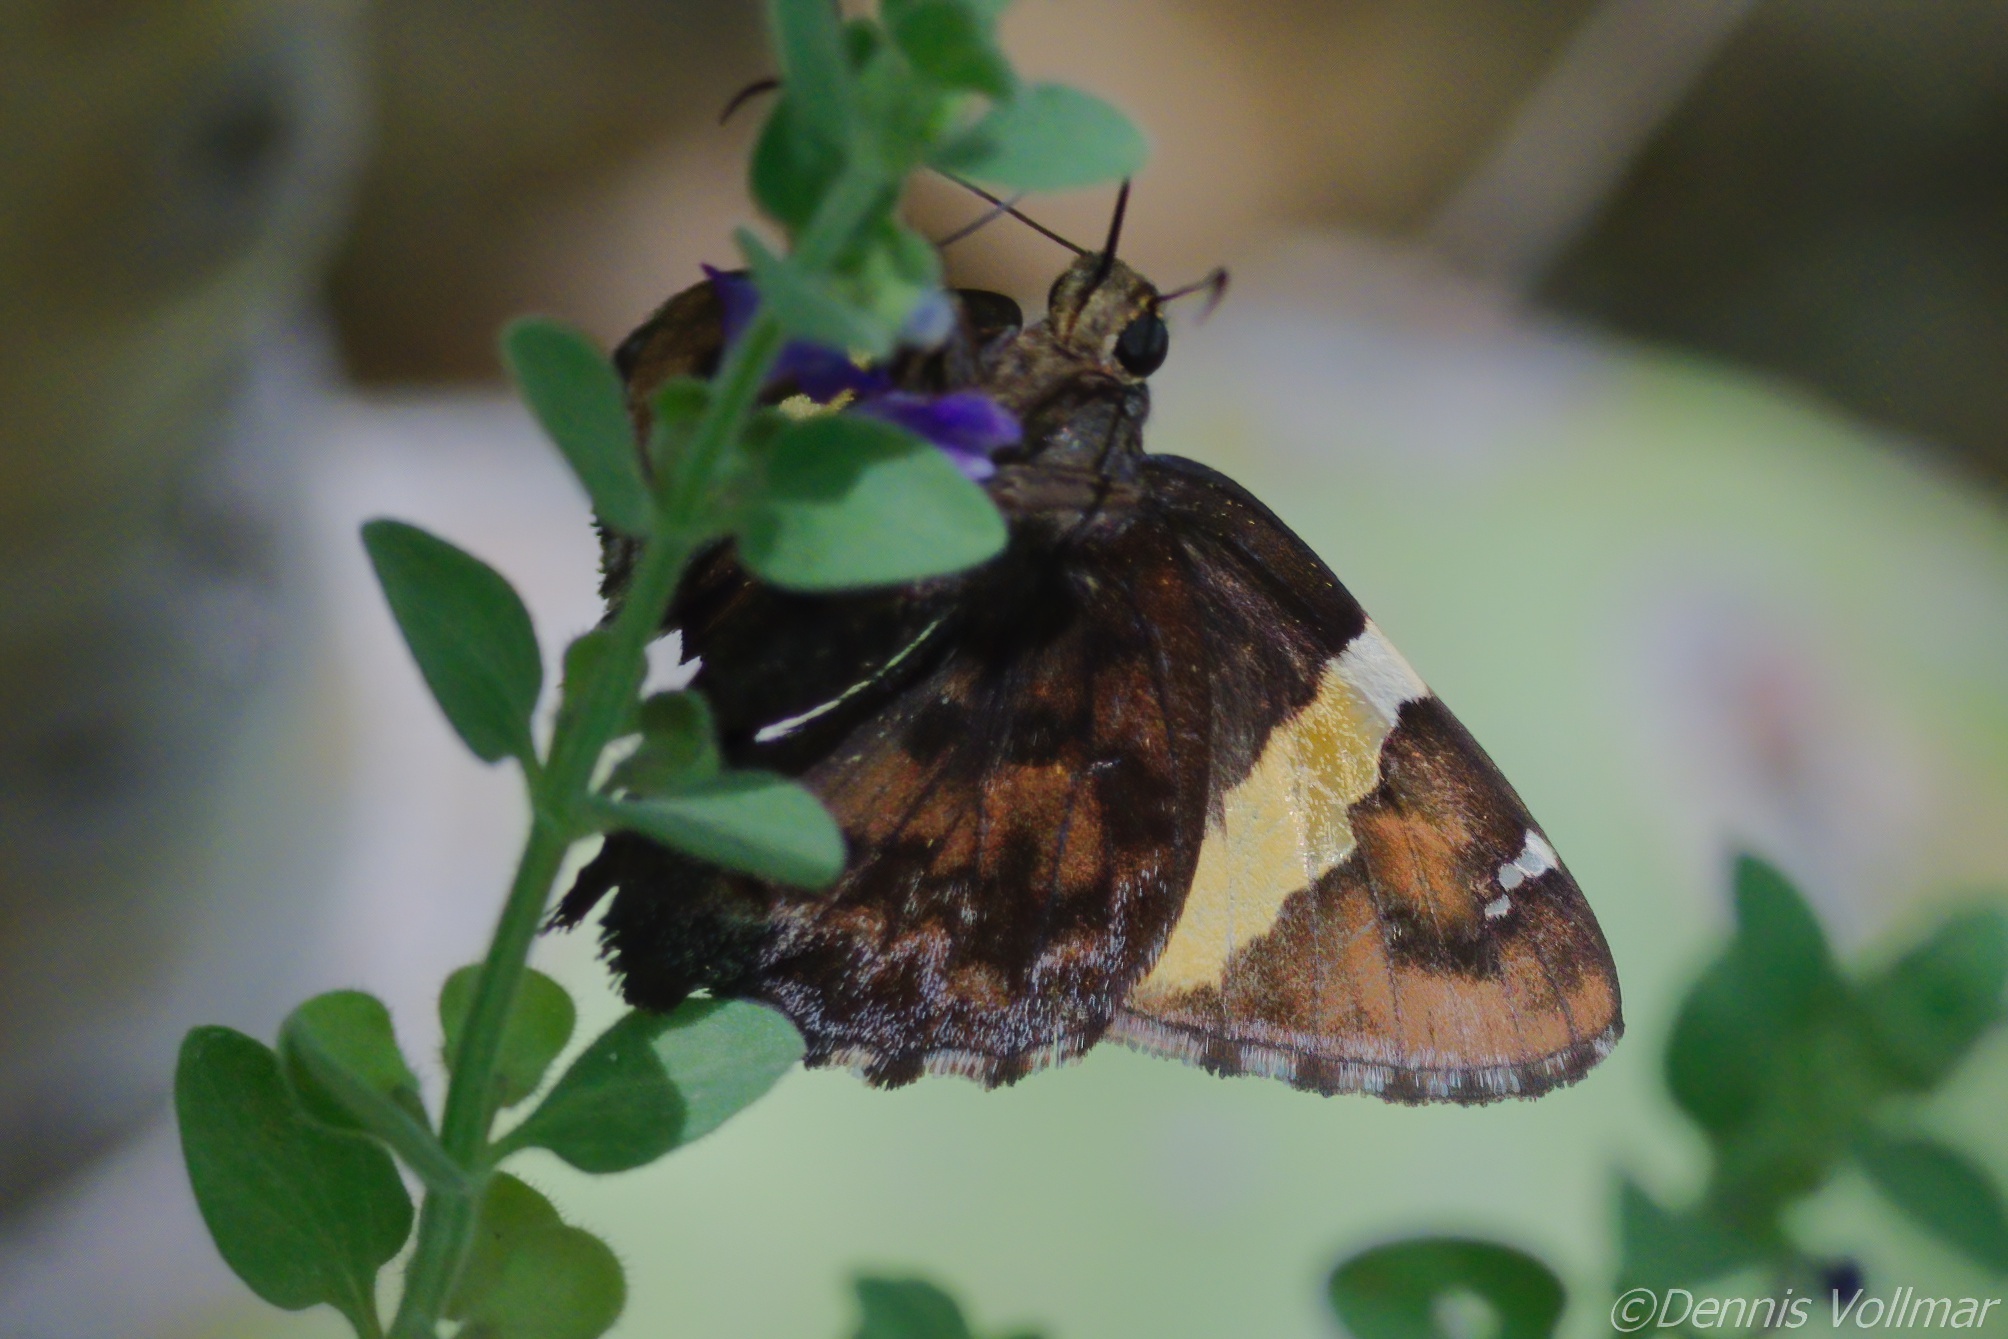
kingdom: Animalia
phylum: Arthropoda
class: Arachnida
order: Scorpiones
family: Bothriuridae
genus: Telegonus
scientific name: Telegonus cellus
